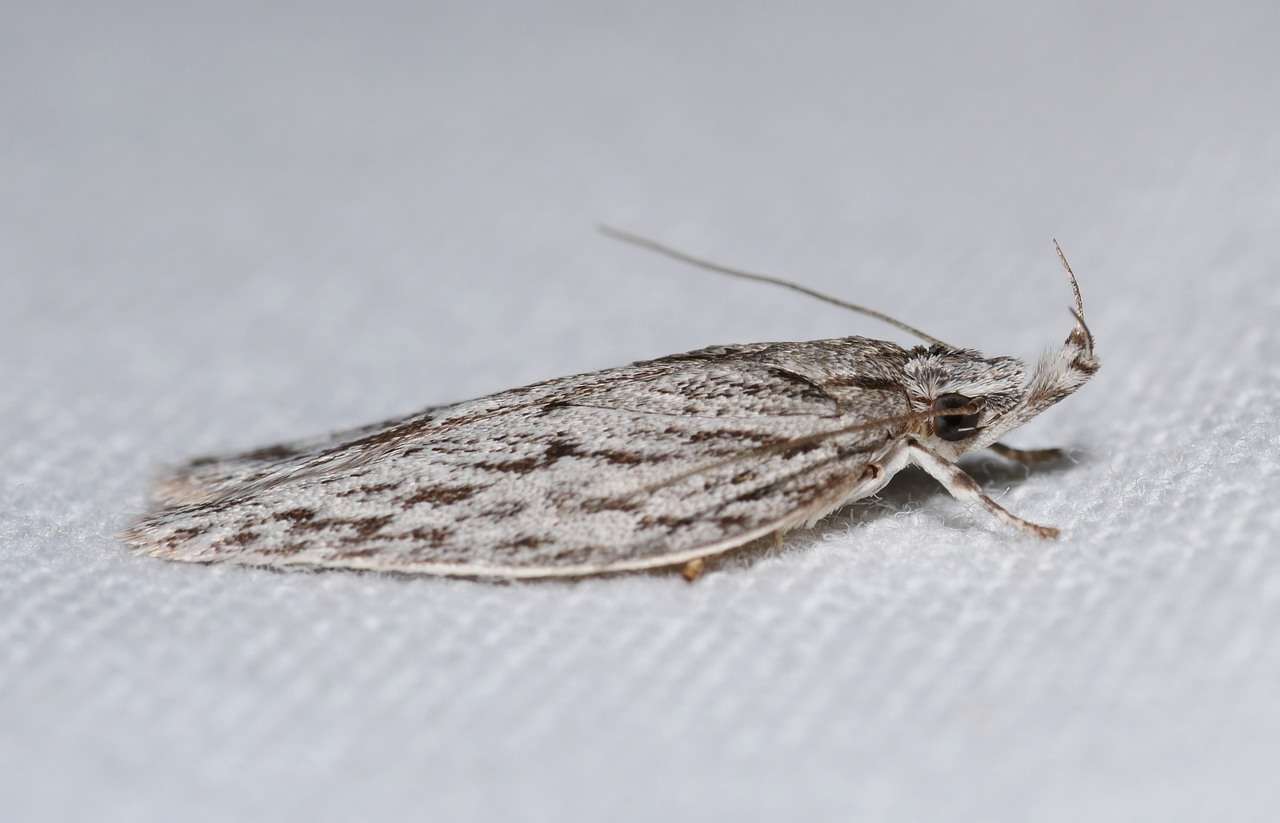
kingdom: Animalia
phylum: Arthropoda
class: Insecta
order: Lepidoptera
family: Depressariidae
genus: Pedois
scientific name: Pedois lewinella
